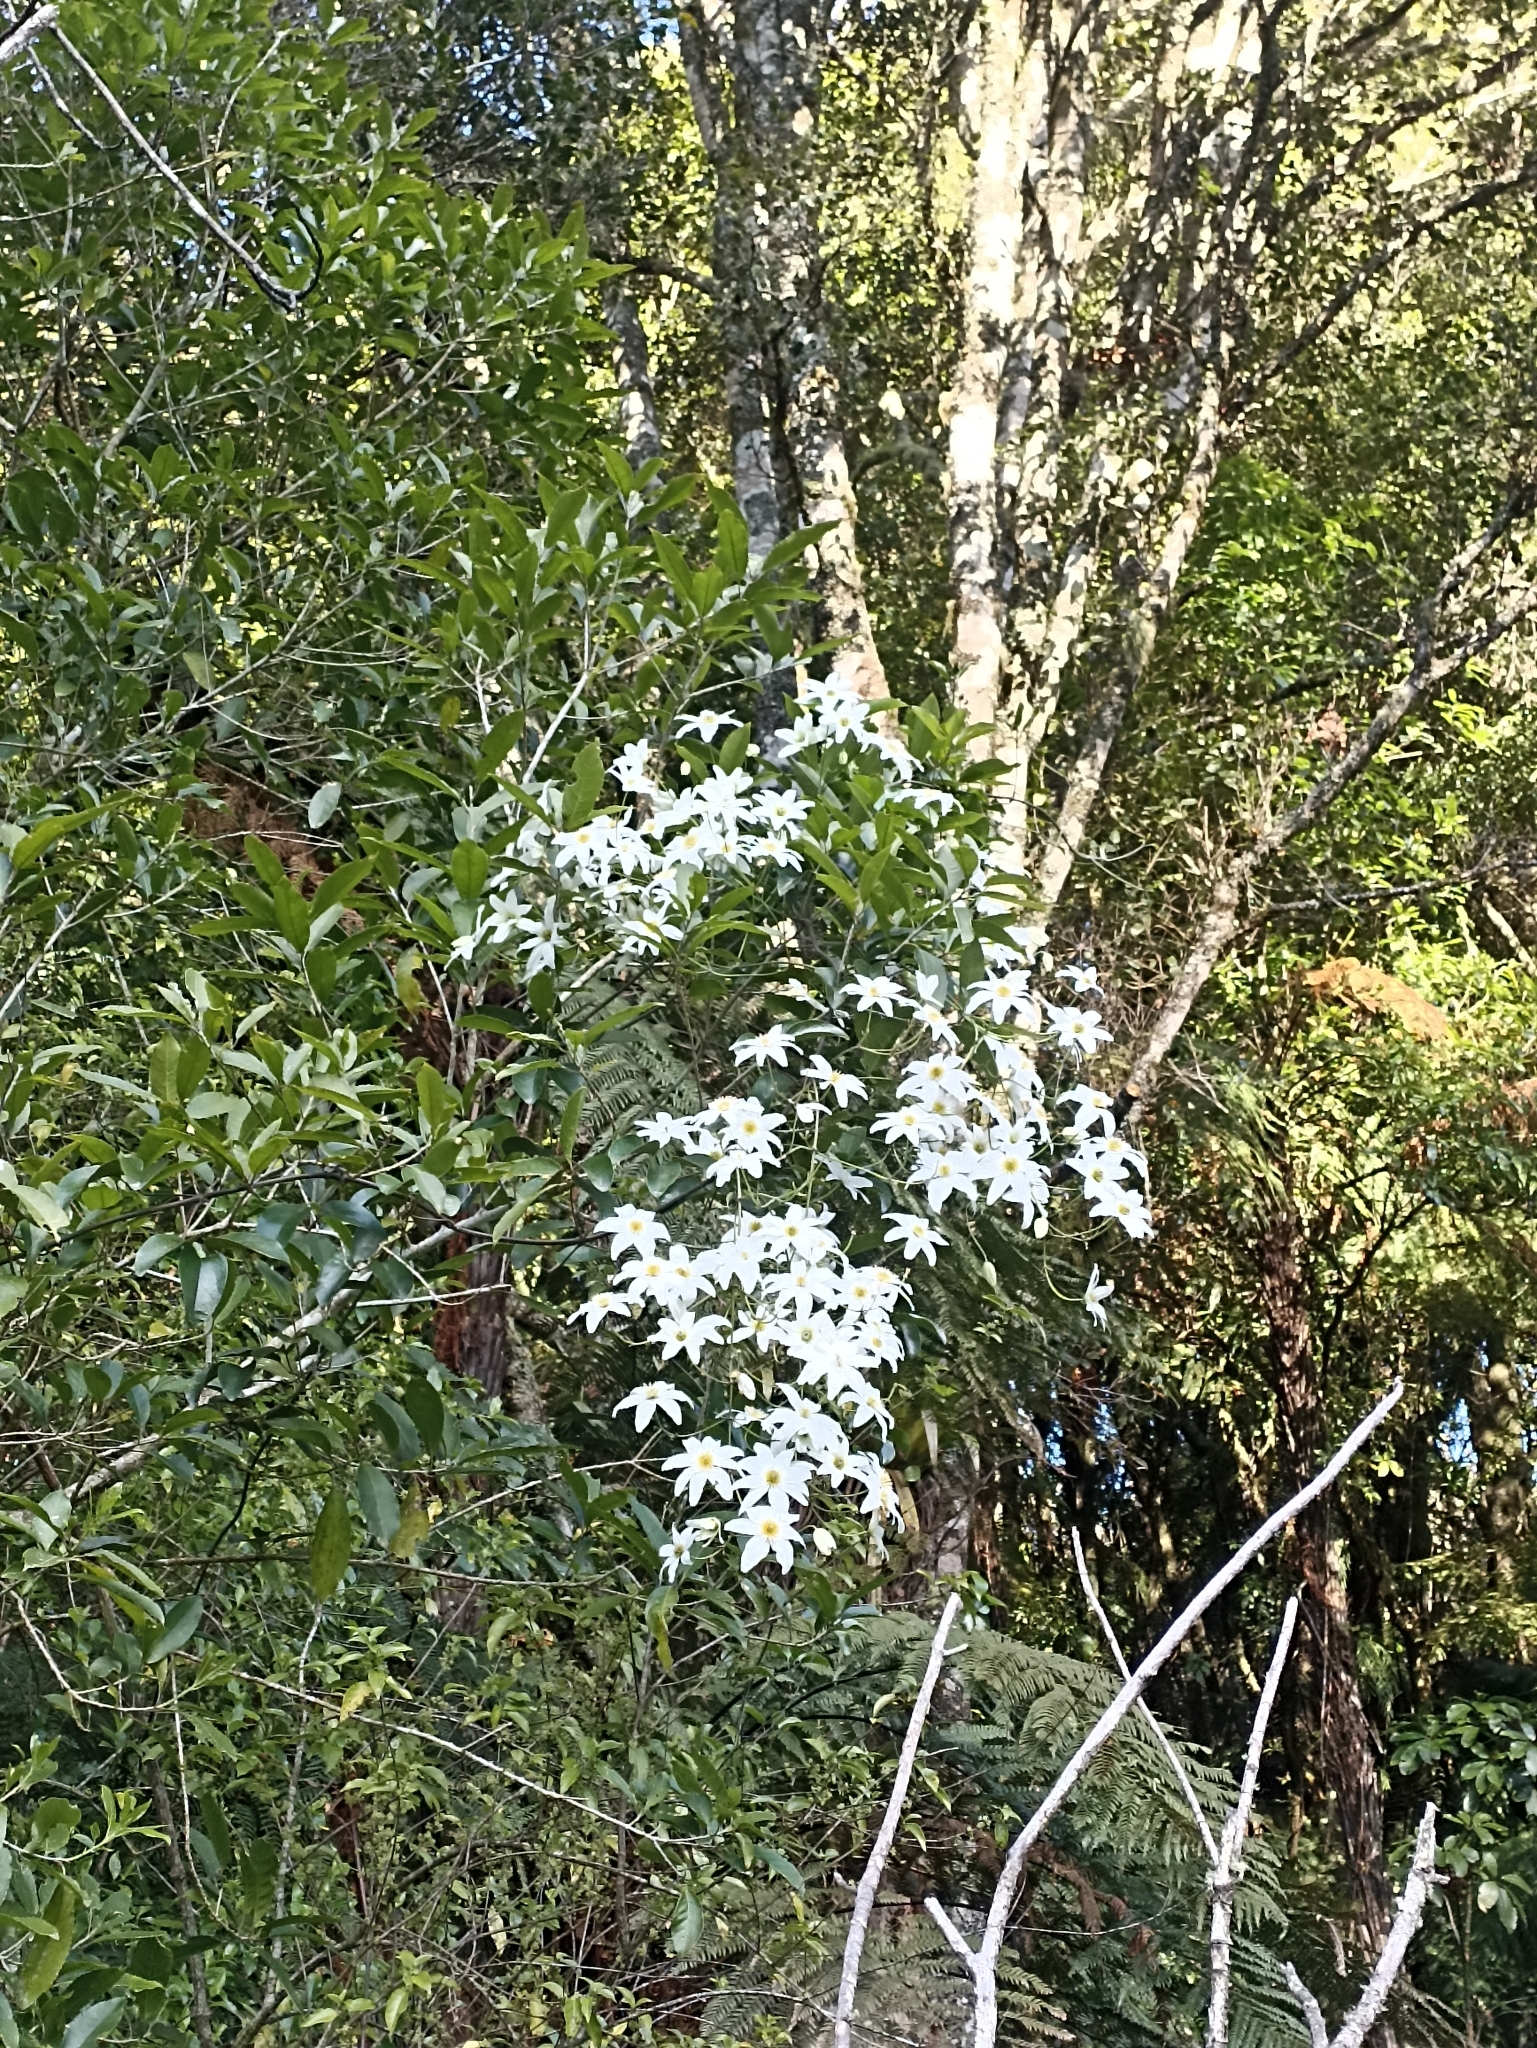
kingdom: Plantae
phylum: Tracheophyta
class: Magnoliopsida
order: Ranunculales
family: Ranunculaceae
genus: Clematis
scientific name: Clematis paniculata
